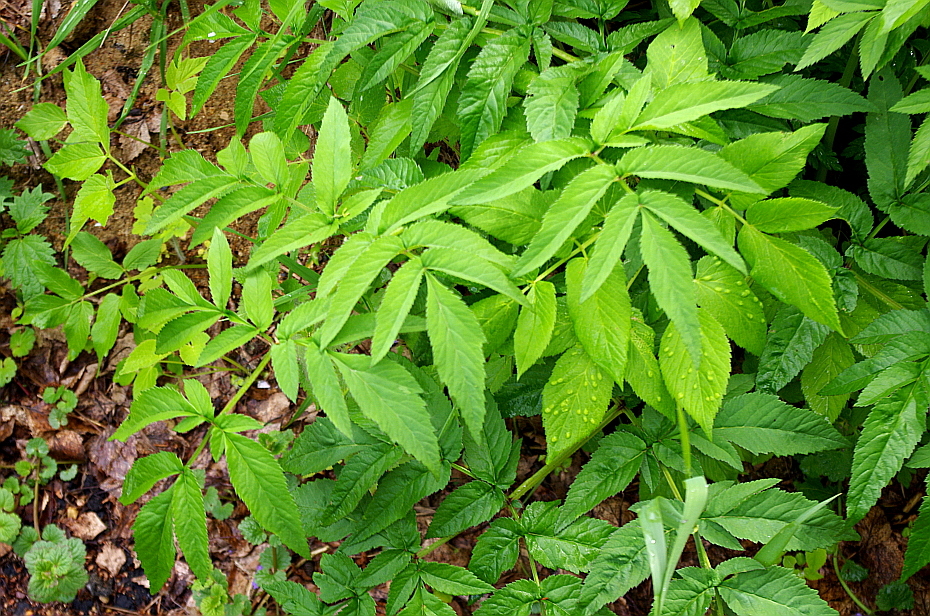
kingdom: Plantae
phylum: Tracheophyta
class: Magnoliopsida
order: Apiales
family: Apiaceae
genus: Angelica
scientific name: Angelica sylvestris
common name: Wild angelica
